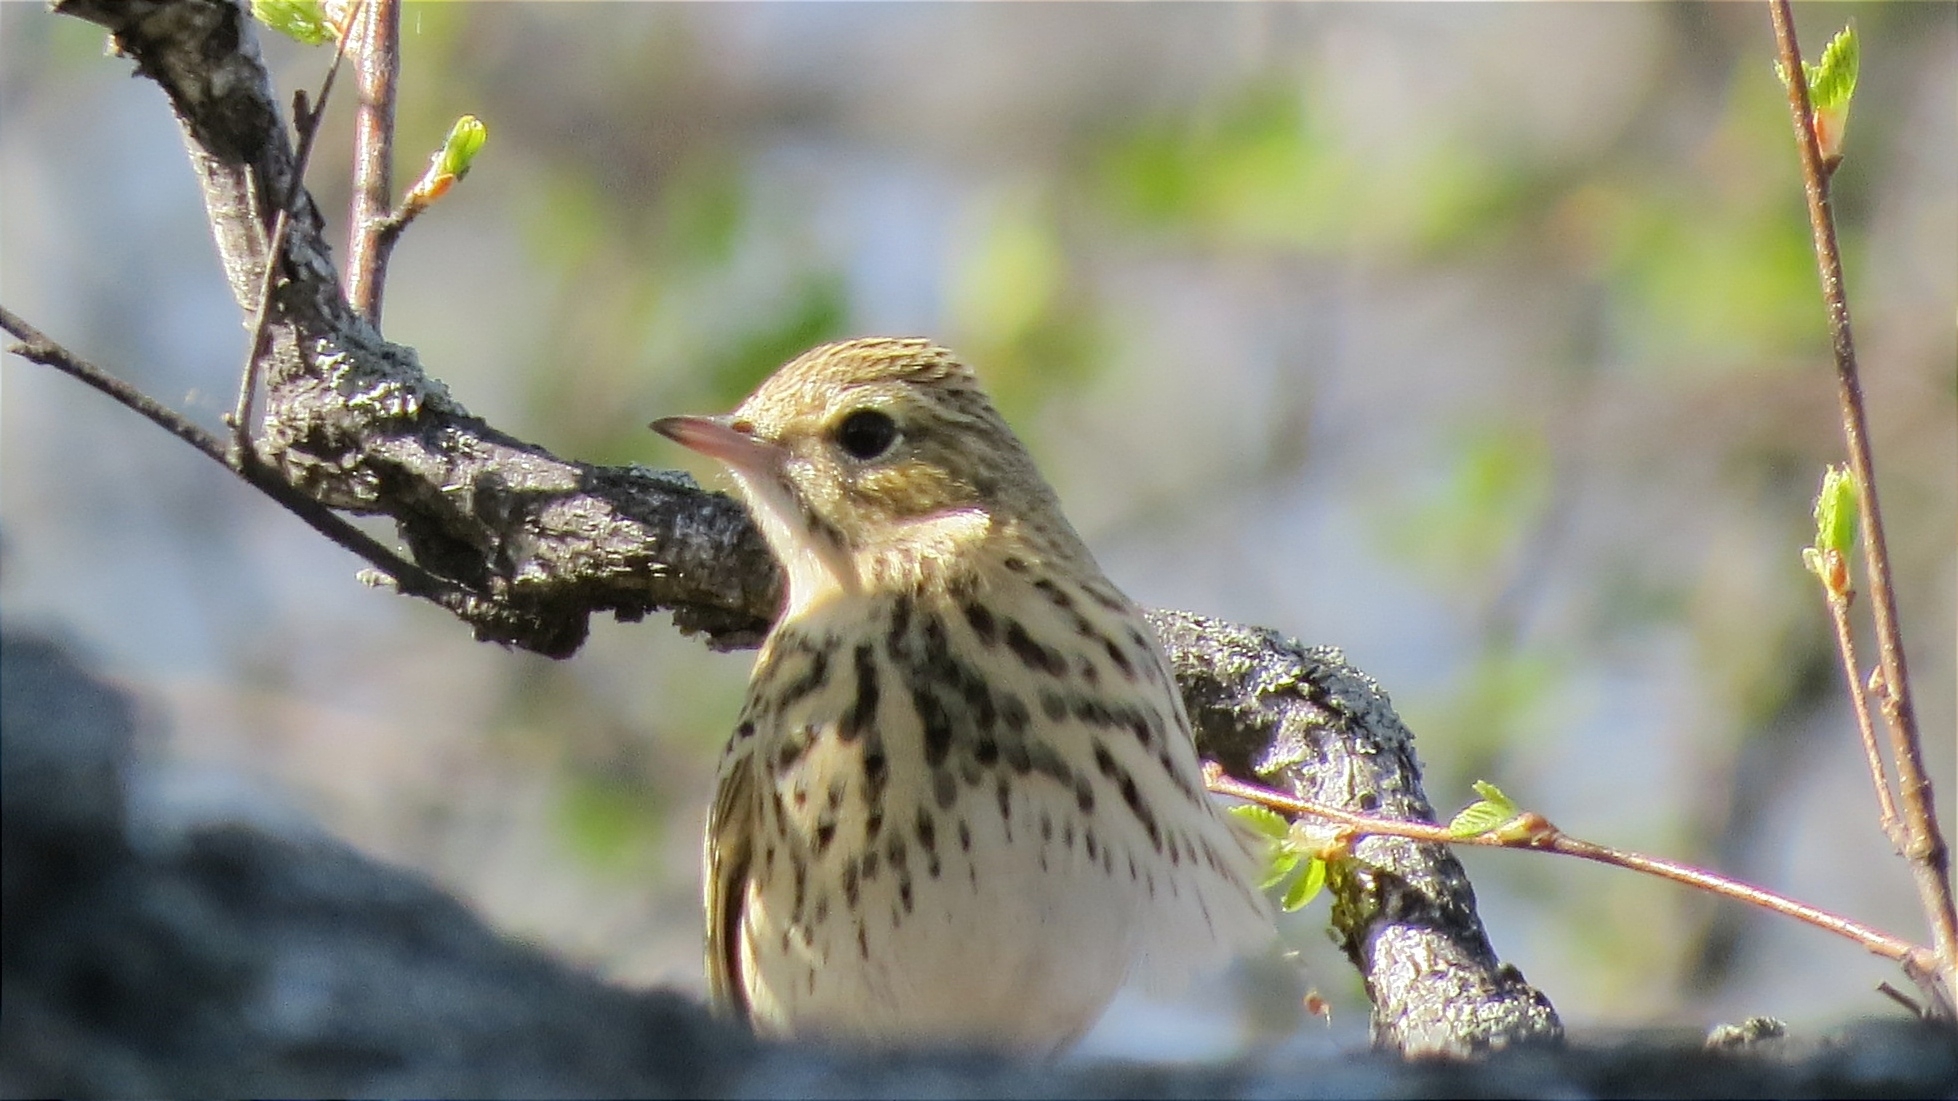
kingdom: Animalia
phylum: Chordata
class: Aves
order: Passeriformes
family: Motacillidae
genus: Anthus
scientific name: Anthus trivialis
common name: Tree pipit
